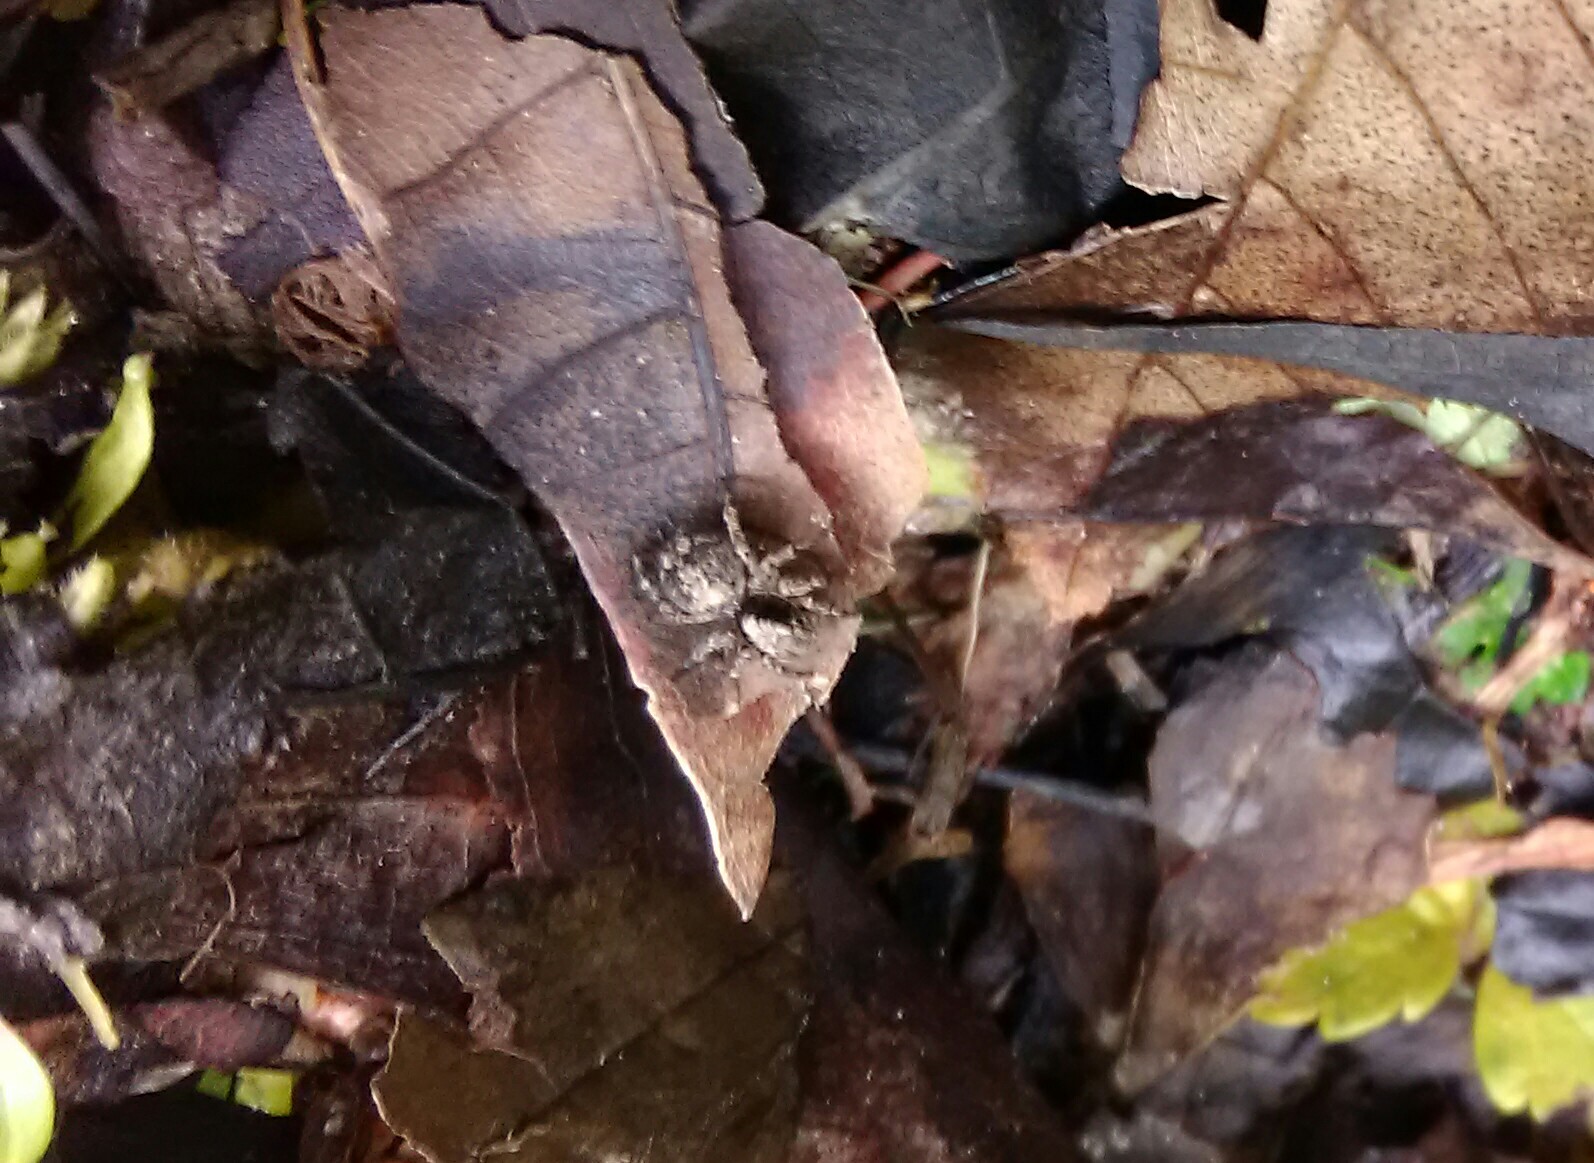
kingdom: Animalia
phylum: Arthropoda
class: Arachnida
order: Araneae
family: Salticidae
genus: Naphrys
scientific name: Naphrys pulex
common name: Flea jumping spider
